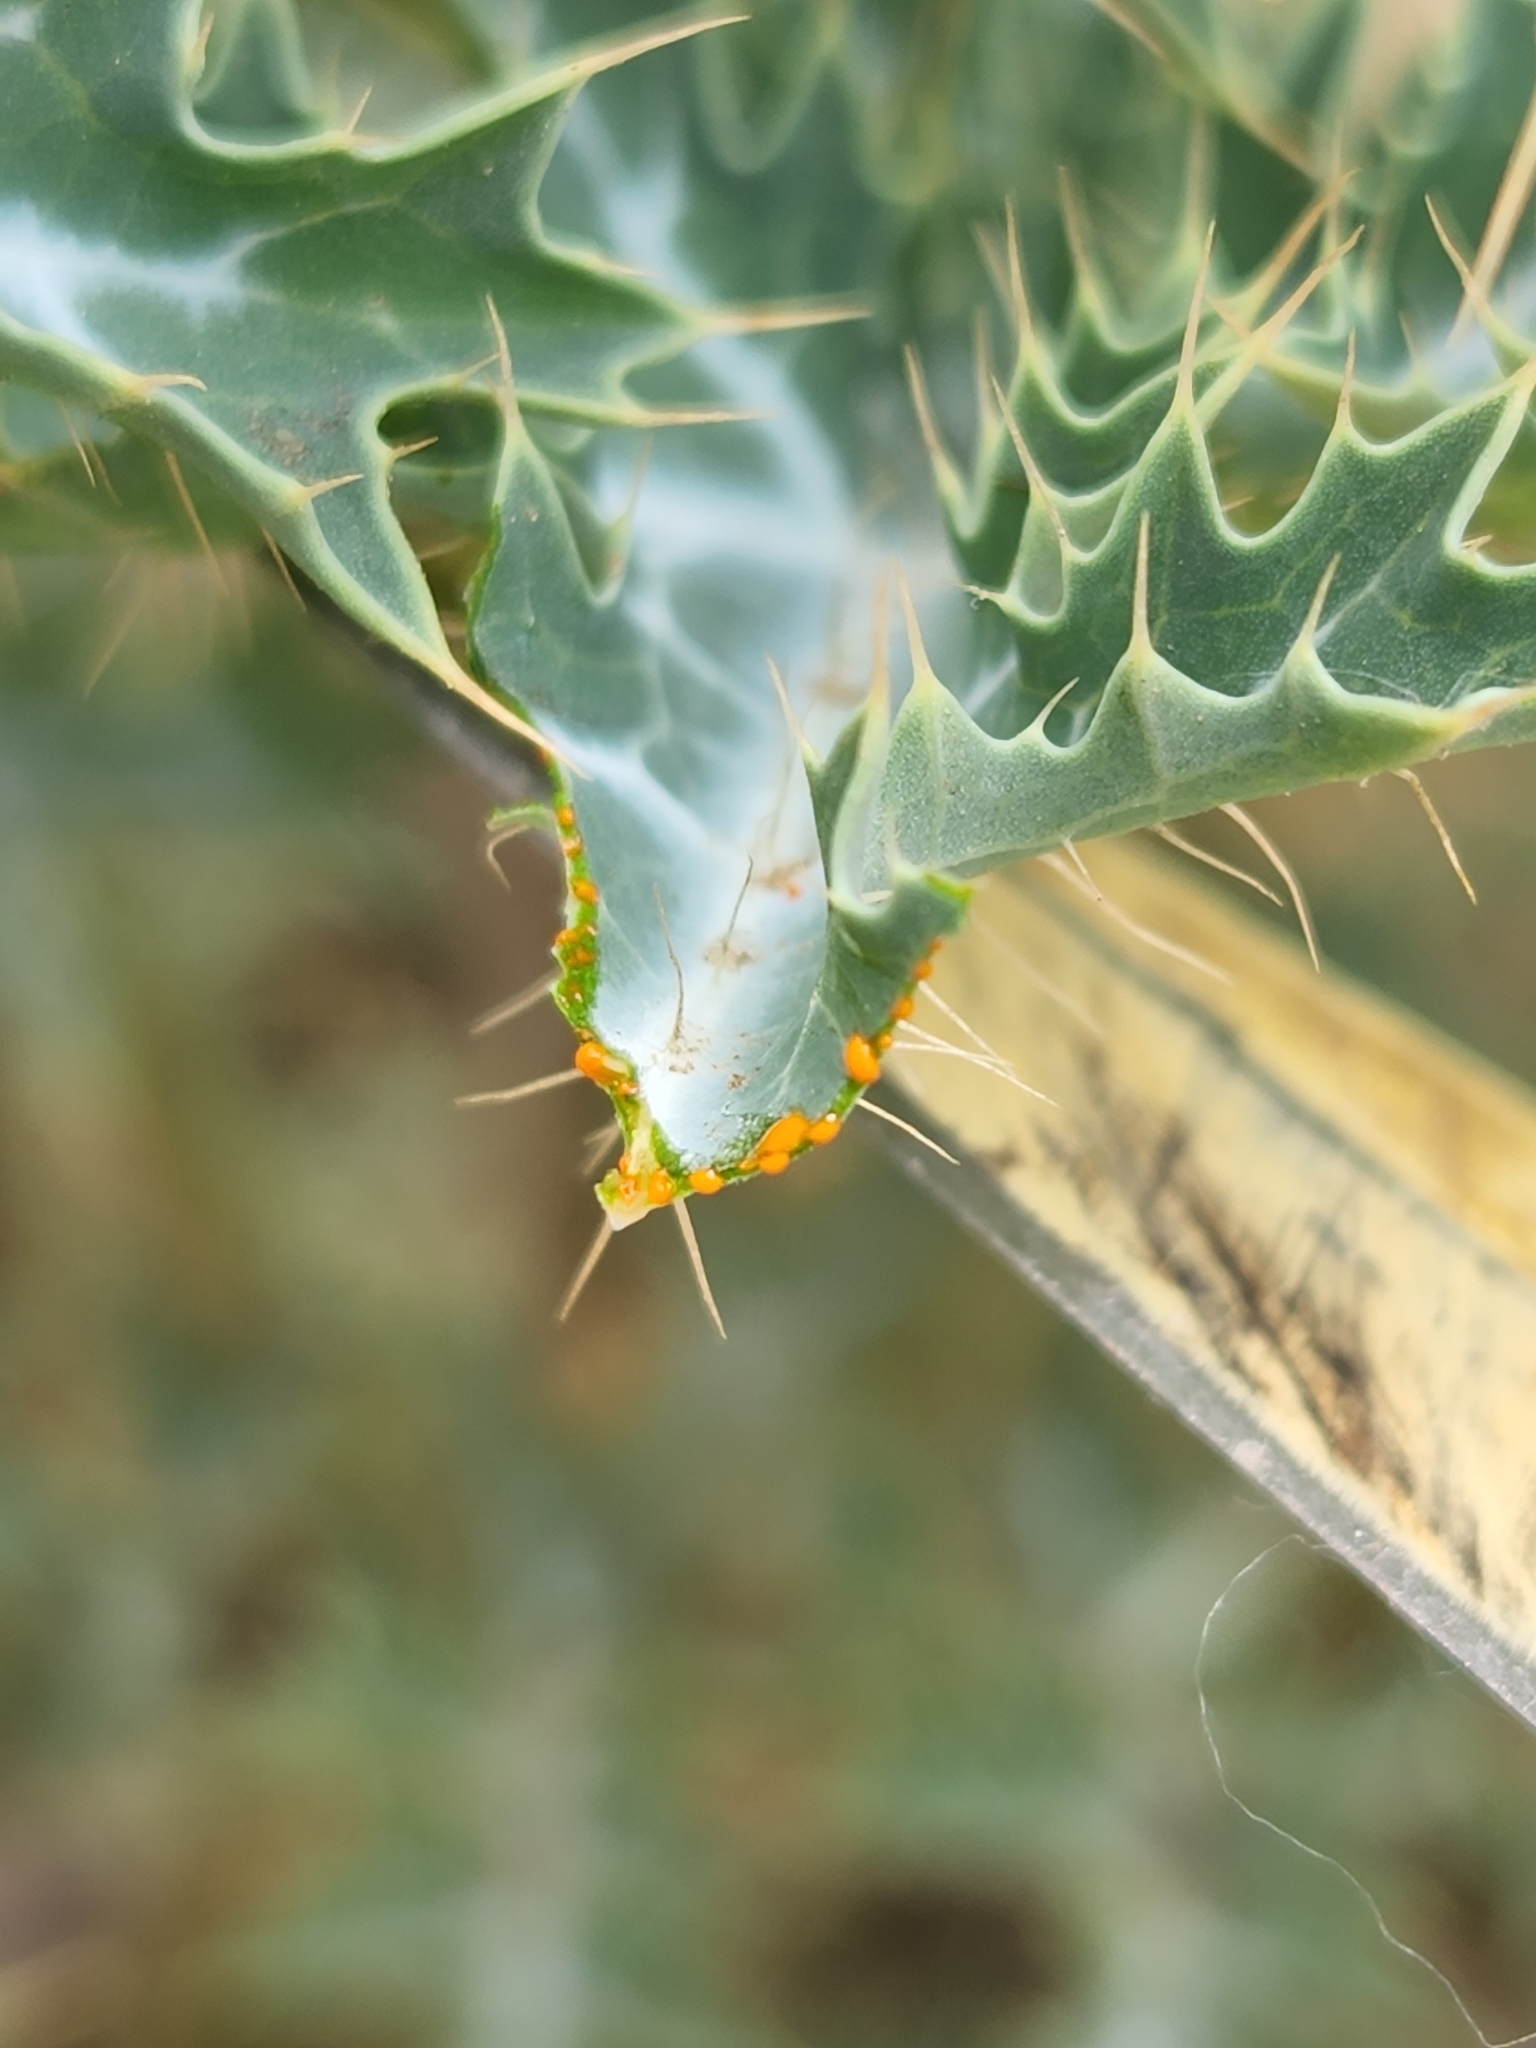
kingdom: Plantae
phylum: Tracheophyta
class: Magnoliopsida
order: Ranunculales
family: Papaveraceae
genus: Argemone
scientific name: Argemone aurantiaca
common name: Texas prickly-poppy
